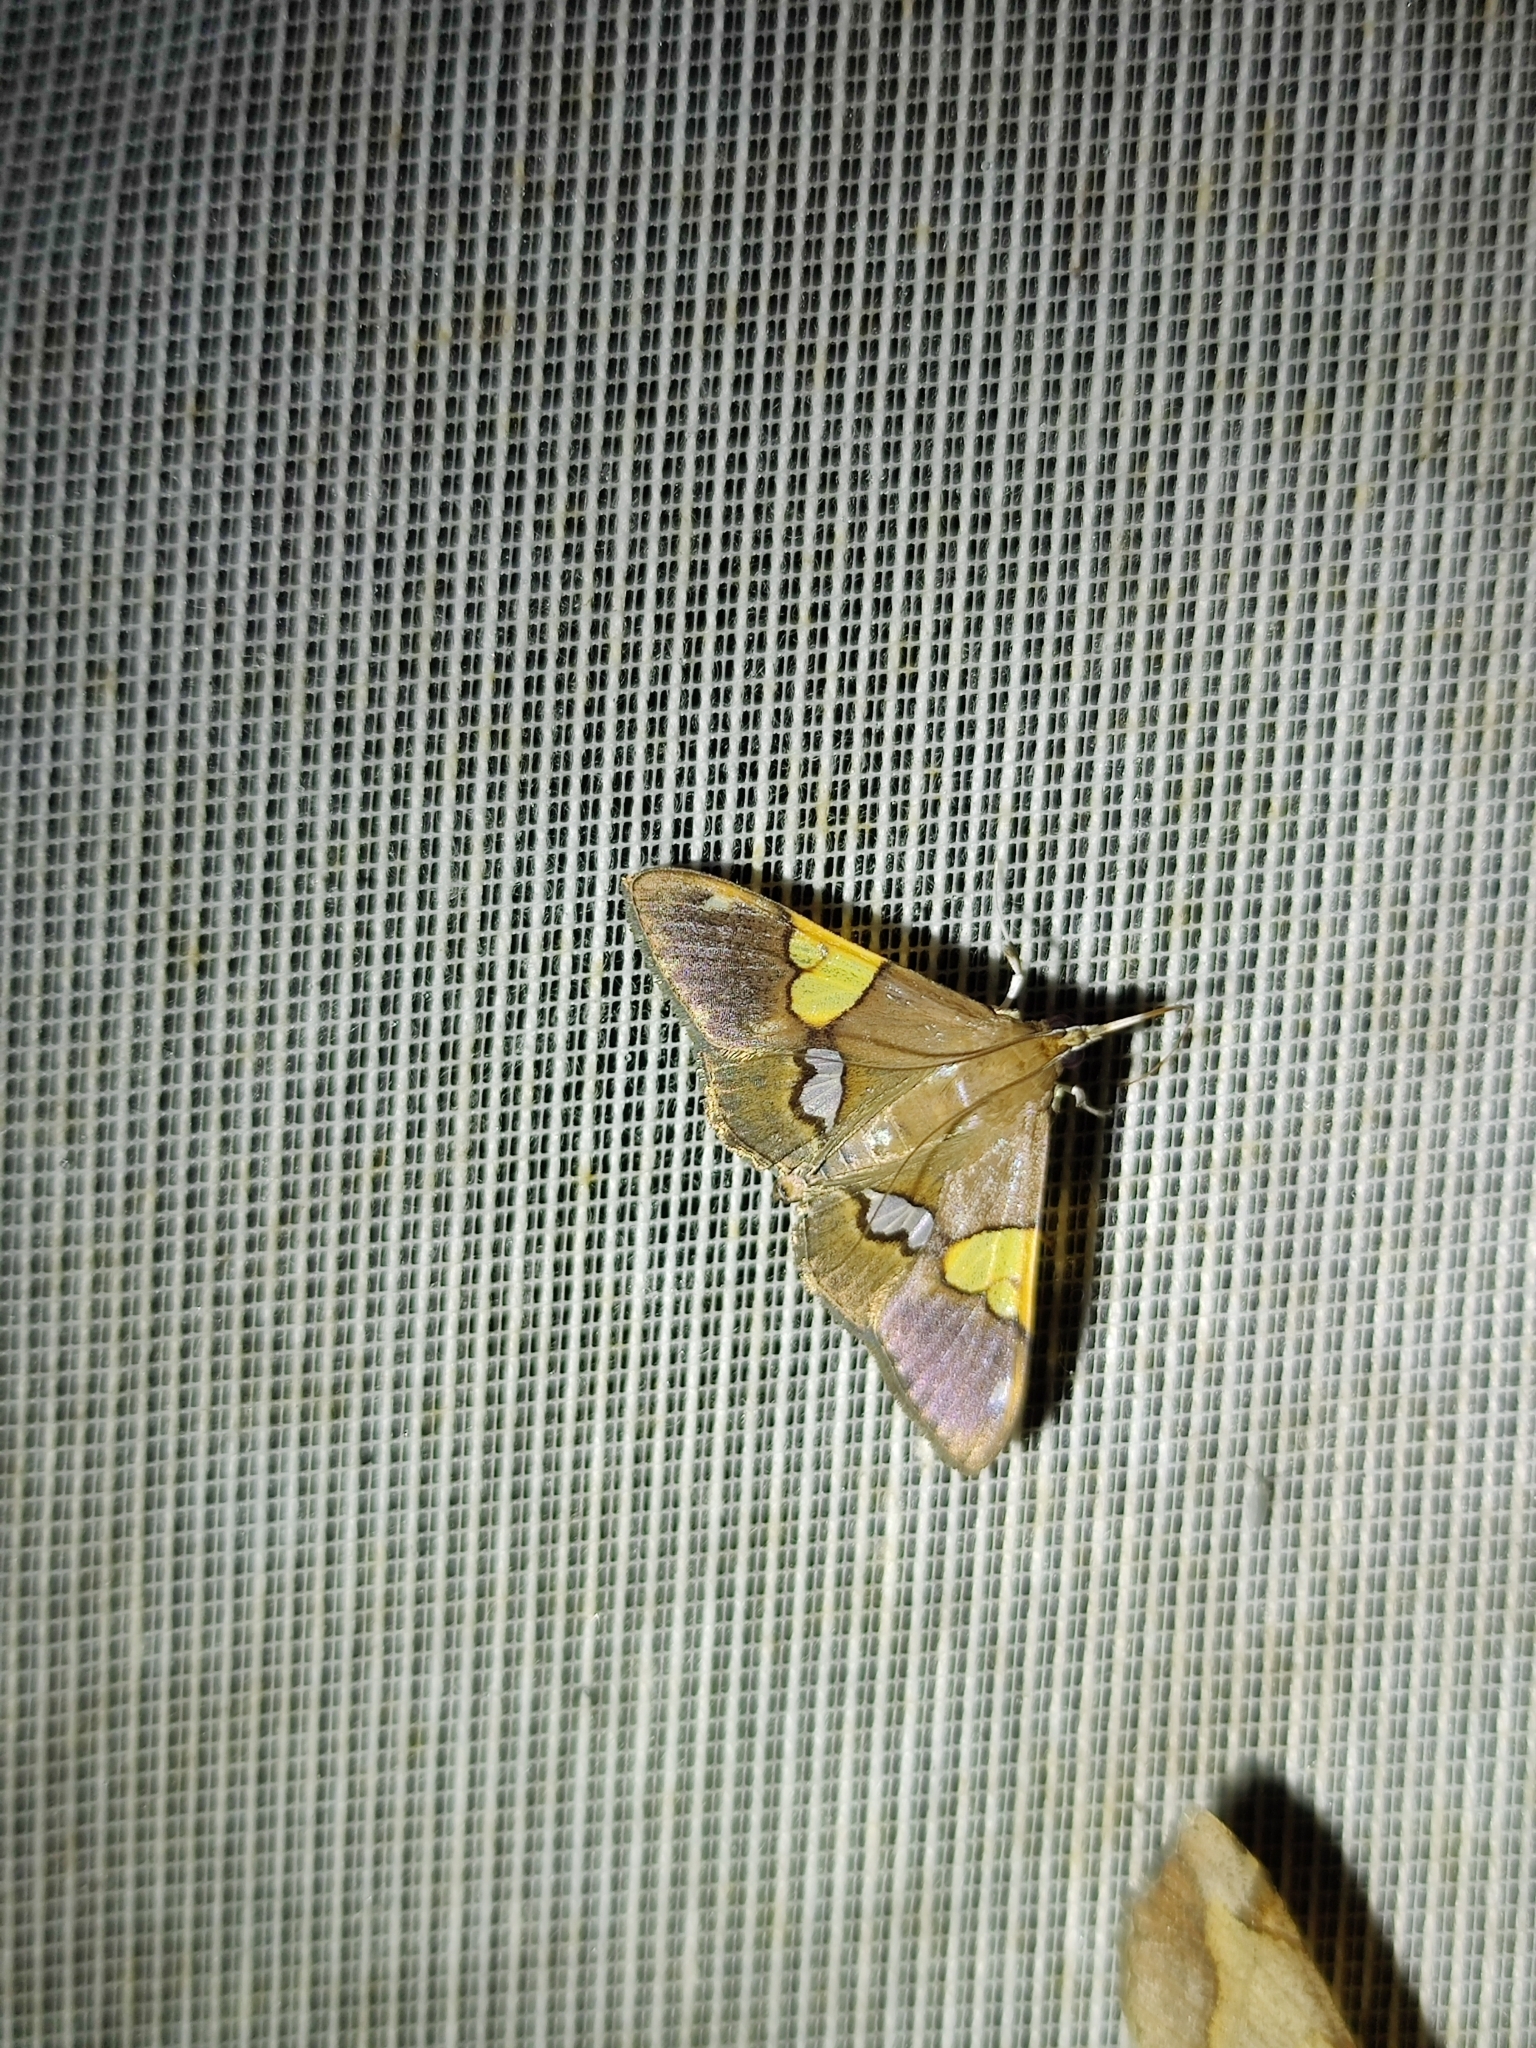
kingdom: Animalia
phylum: Arthropoda
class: Insecta
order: Lepidoptera
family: Crambidae
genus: Heterocnephes
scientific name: Heterocnephes lymphatalis
